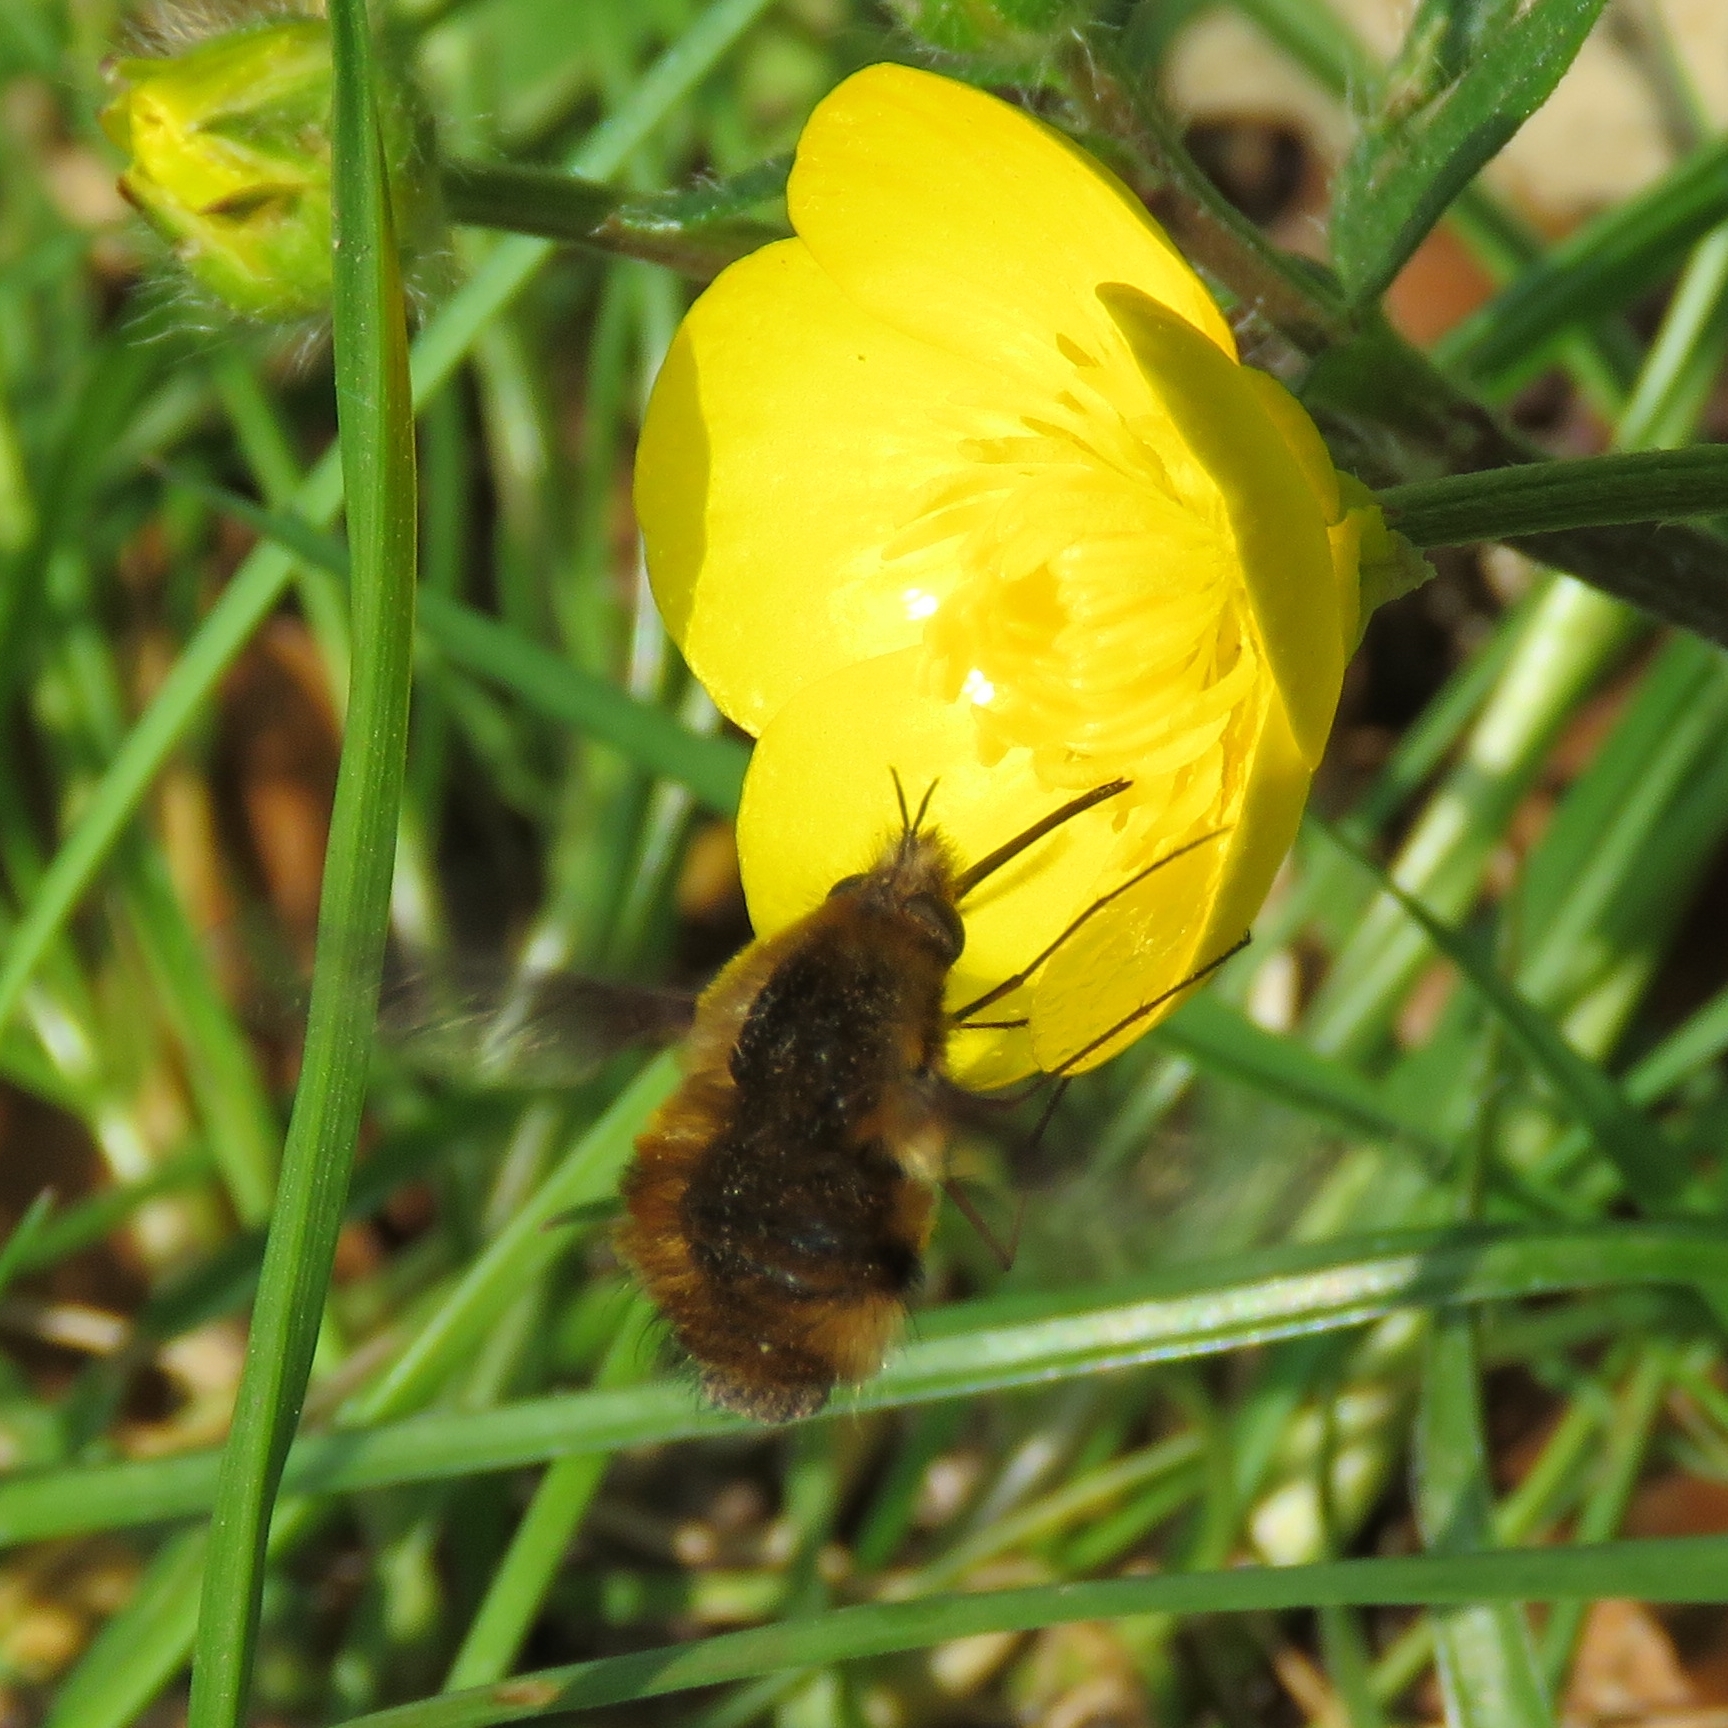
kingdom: Animalia
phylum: Arthropoda
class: Insecta
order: Diptera
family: Bombyliidae
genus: Bombylius
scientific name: Bombylius major
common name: Bee fly
